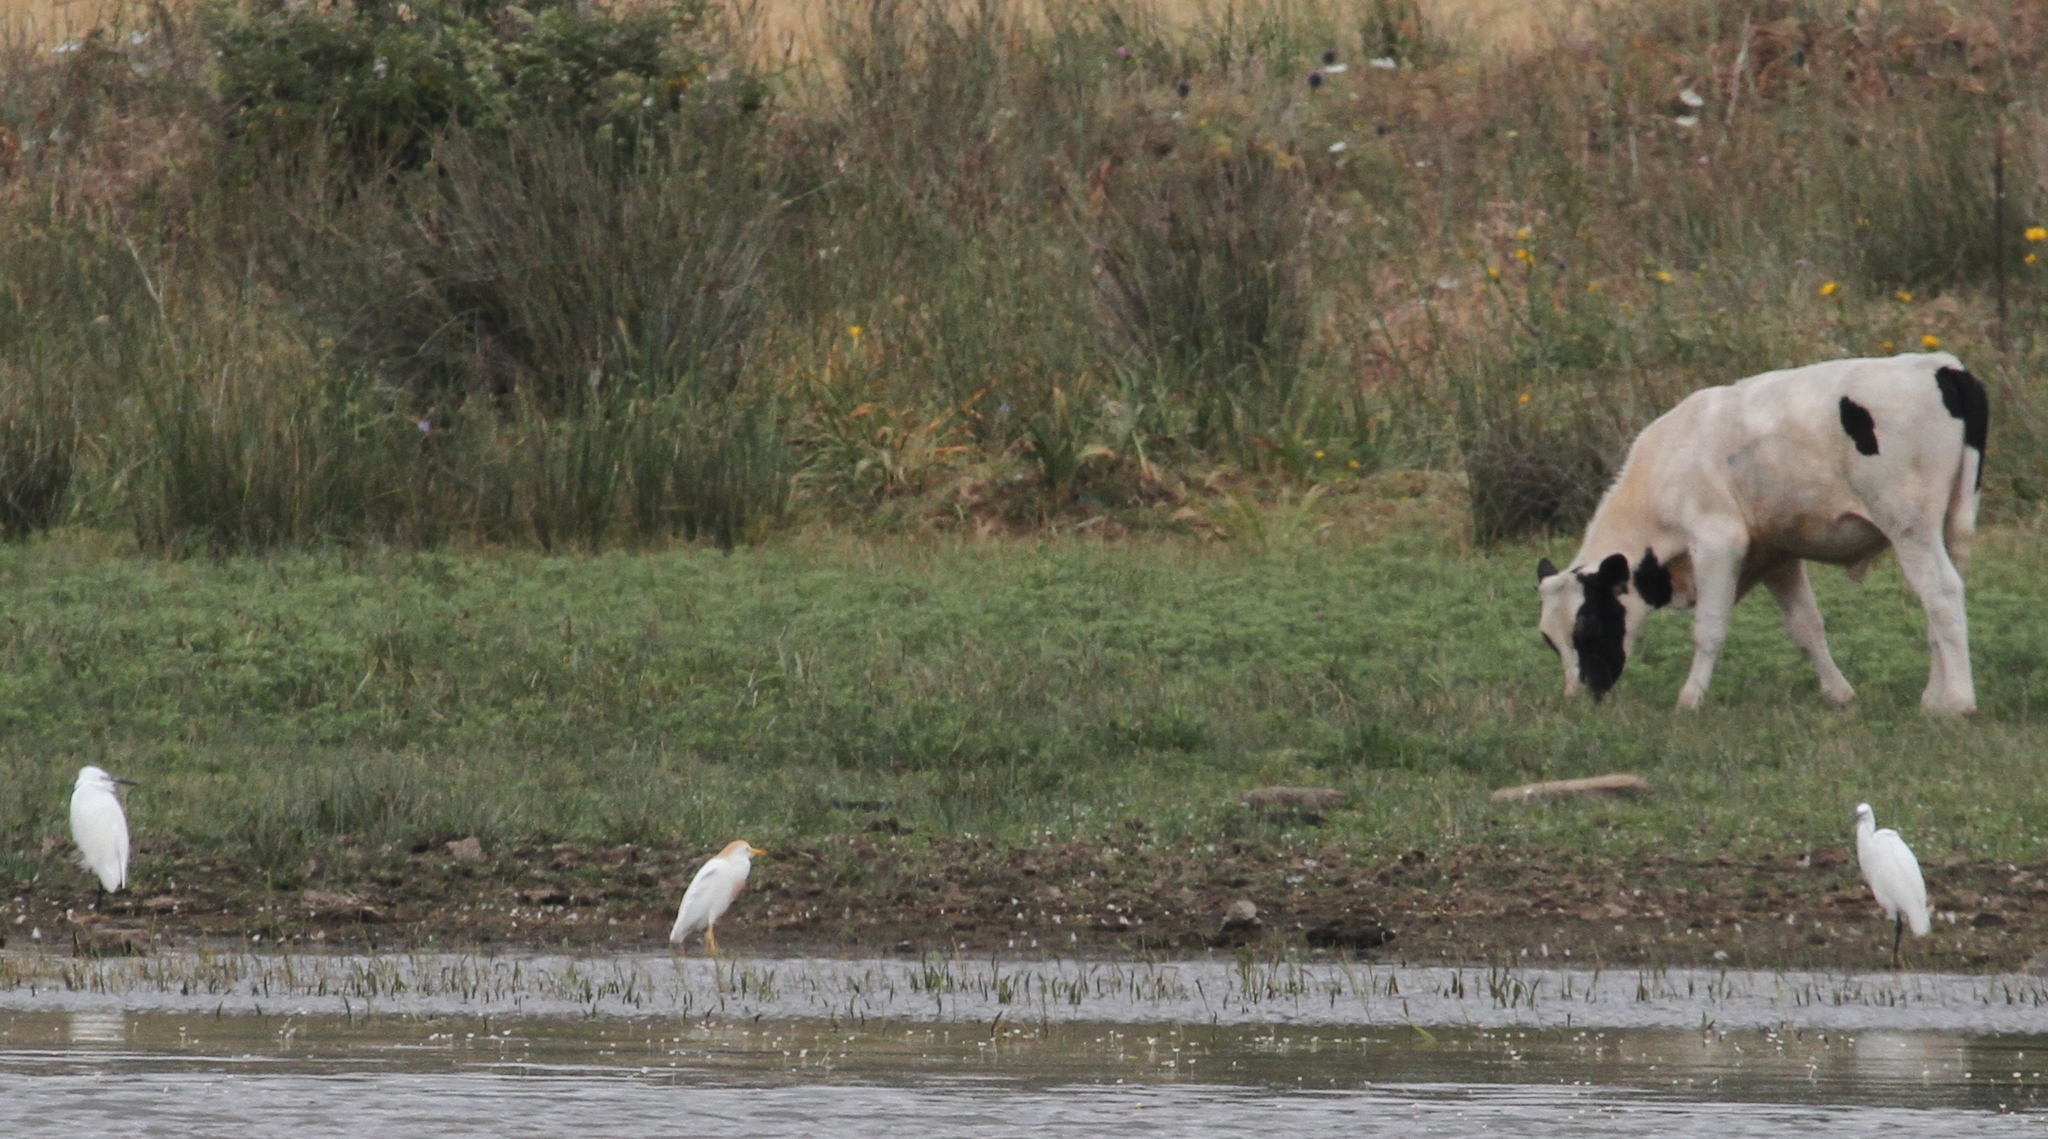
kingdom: Animalia
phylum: Chordata
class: Aves
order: Pelecaniformes
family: Ardeidae
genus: Bubulcus
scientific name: Bubulcus ibis
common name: Cattle egret
